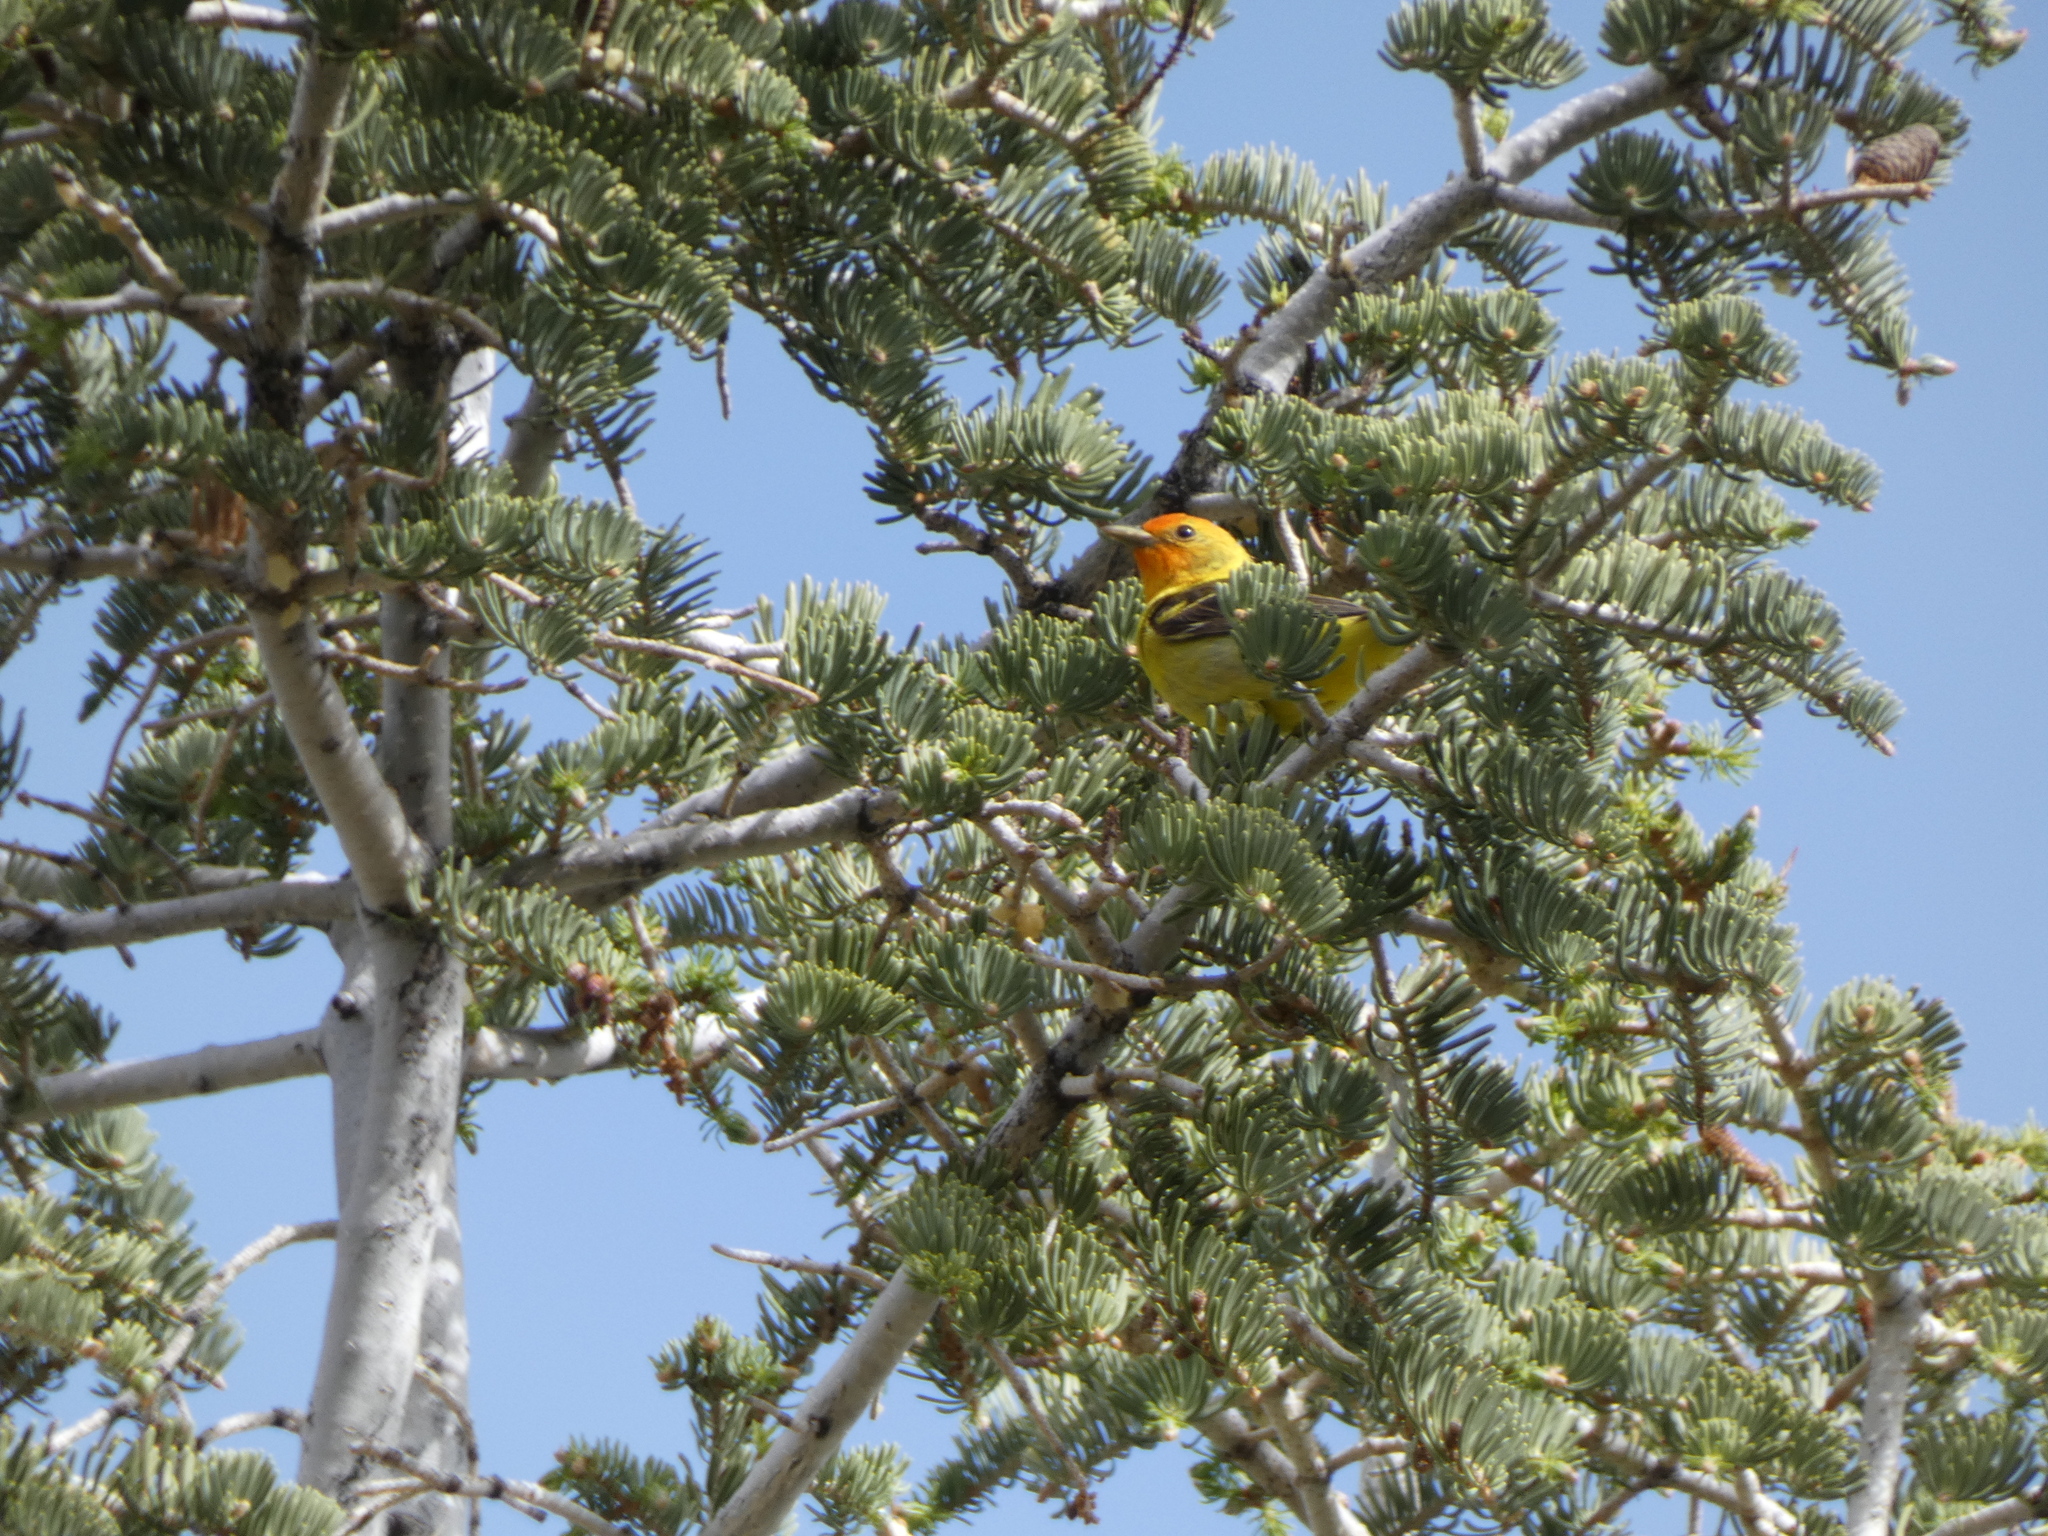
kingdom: Animalia
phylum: Chordata
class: Aves
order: Passeriformes
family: Cardinalidae
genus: Piranga
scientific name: Piranga ludoviciana
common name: Western tanager
